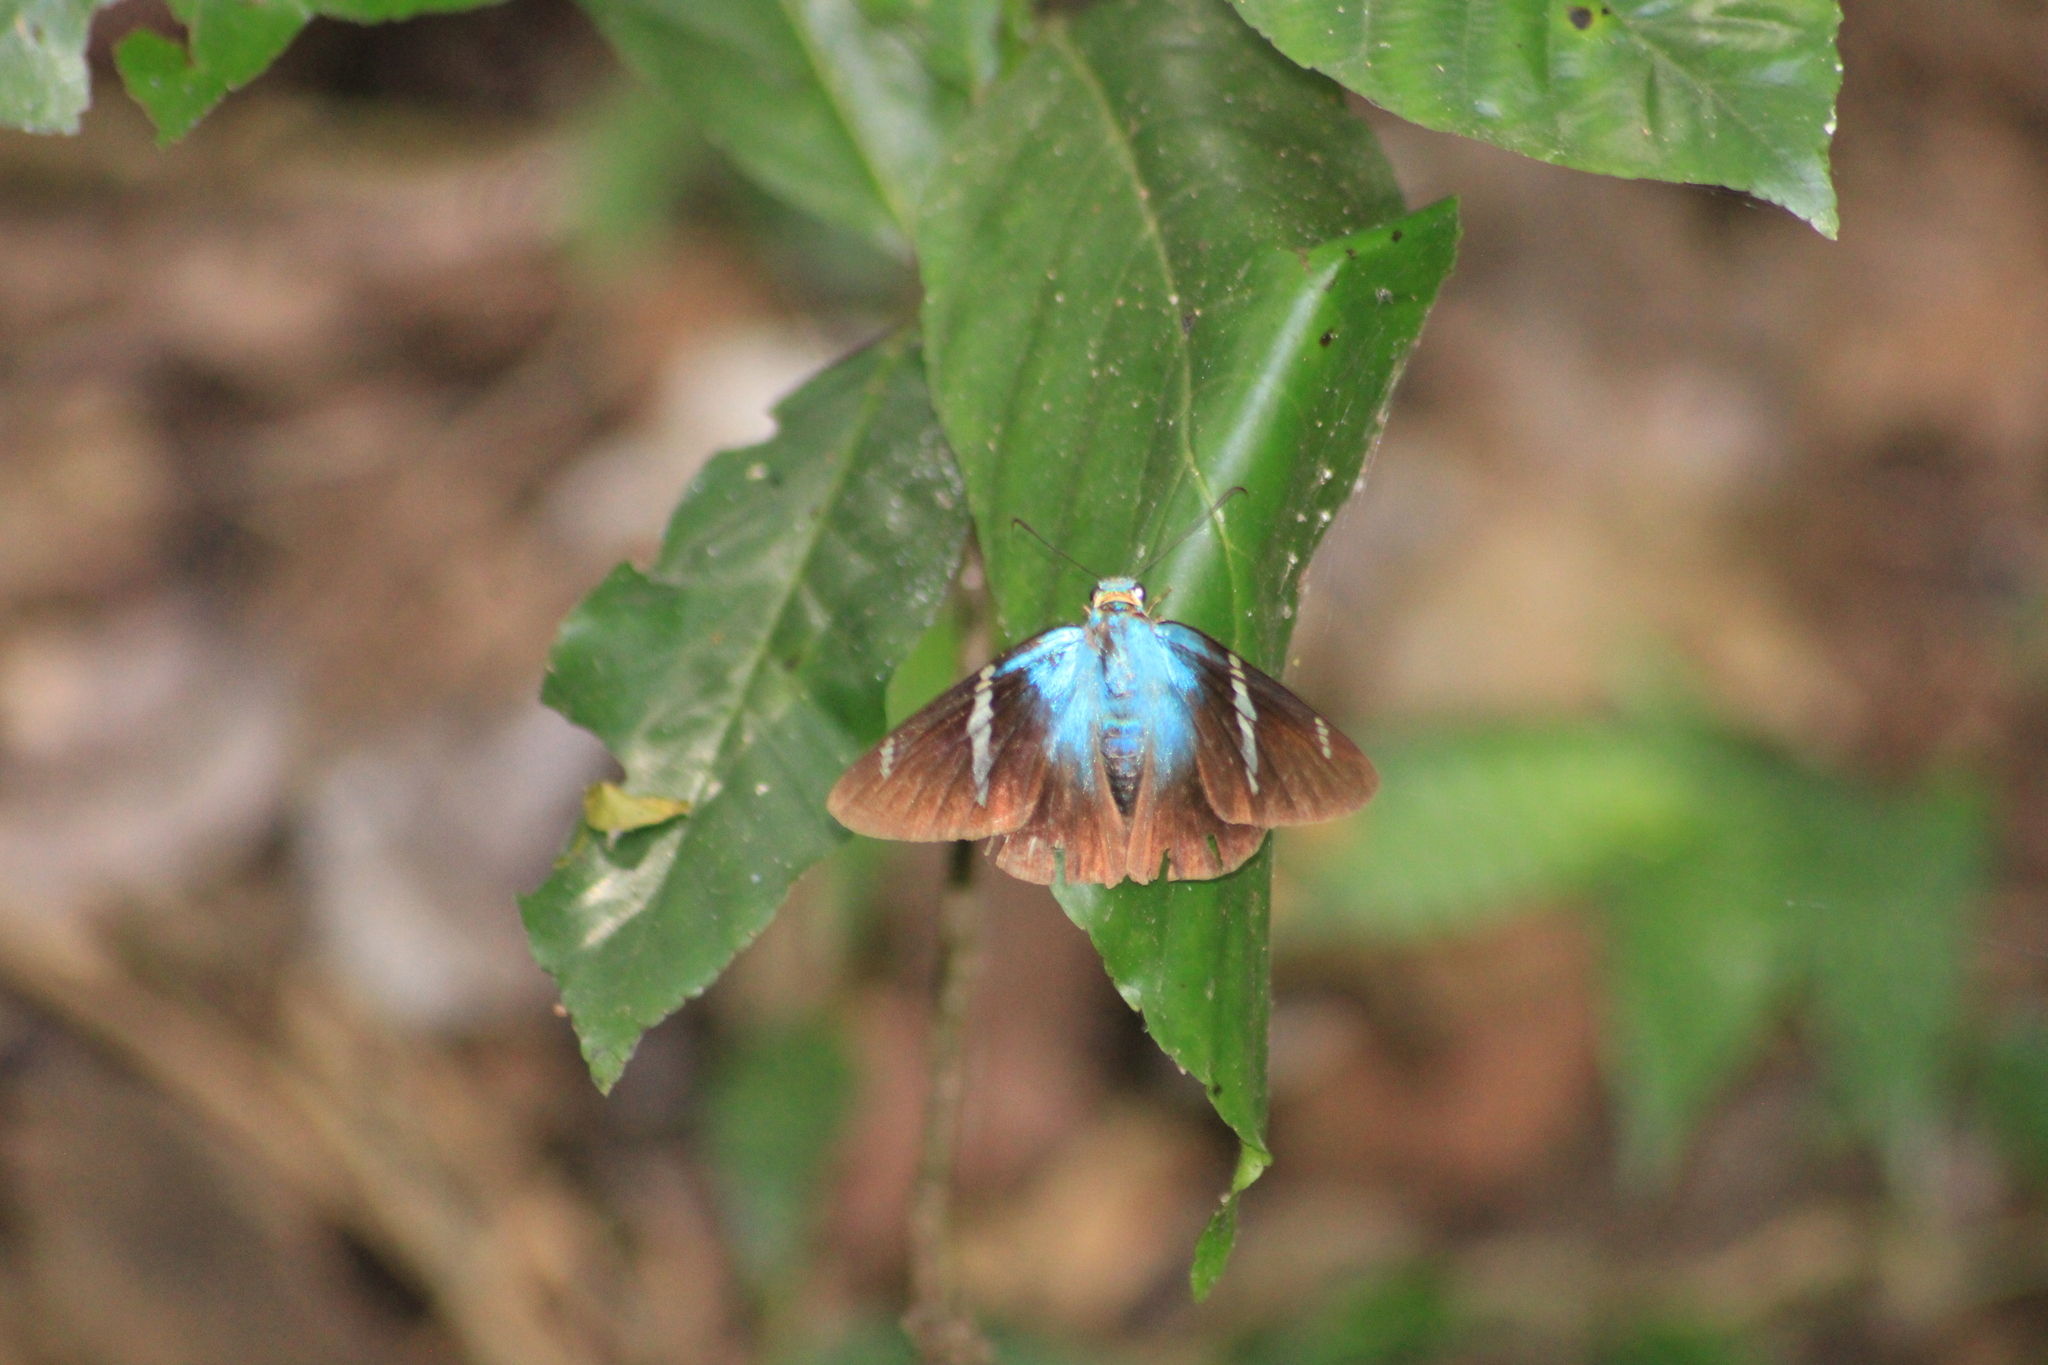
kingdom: Animalia
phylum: Arthropoda
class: Insecta
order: Lepidoptera
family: Hesperiidae
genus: Astraptes
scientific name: Astraptes fulgerator
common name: Two-barred flasher
